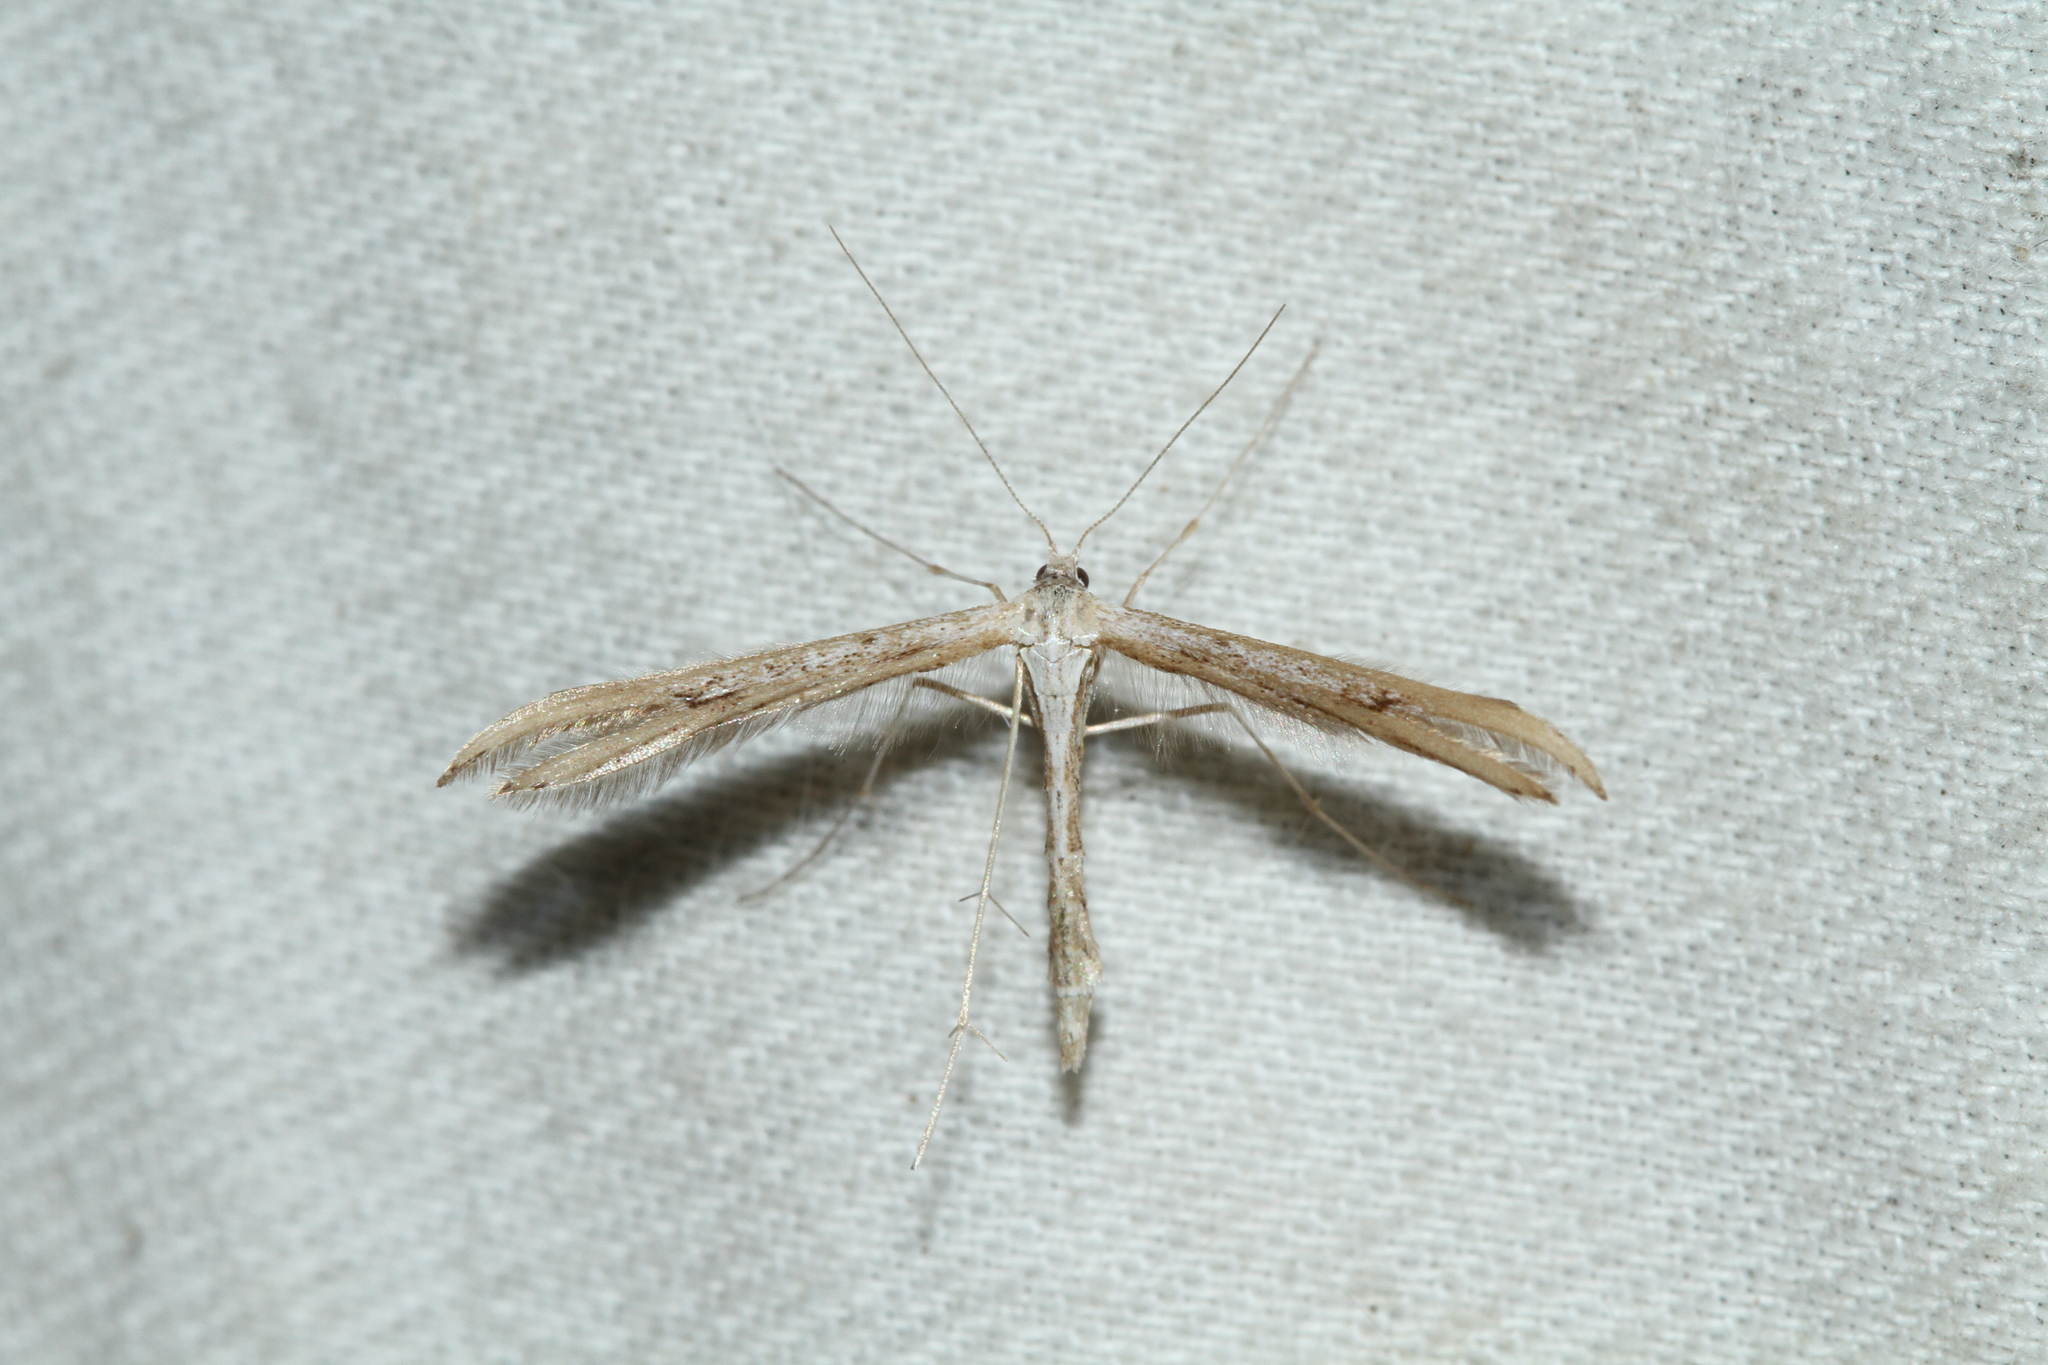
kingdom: Animalia
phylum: Arthropoda
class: Insecta
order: Lepidoptera
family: Pterophoridae
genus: Emmelina
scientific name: Emmelina monodactyla
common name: Common plume
